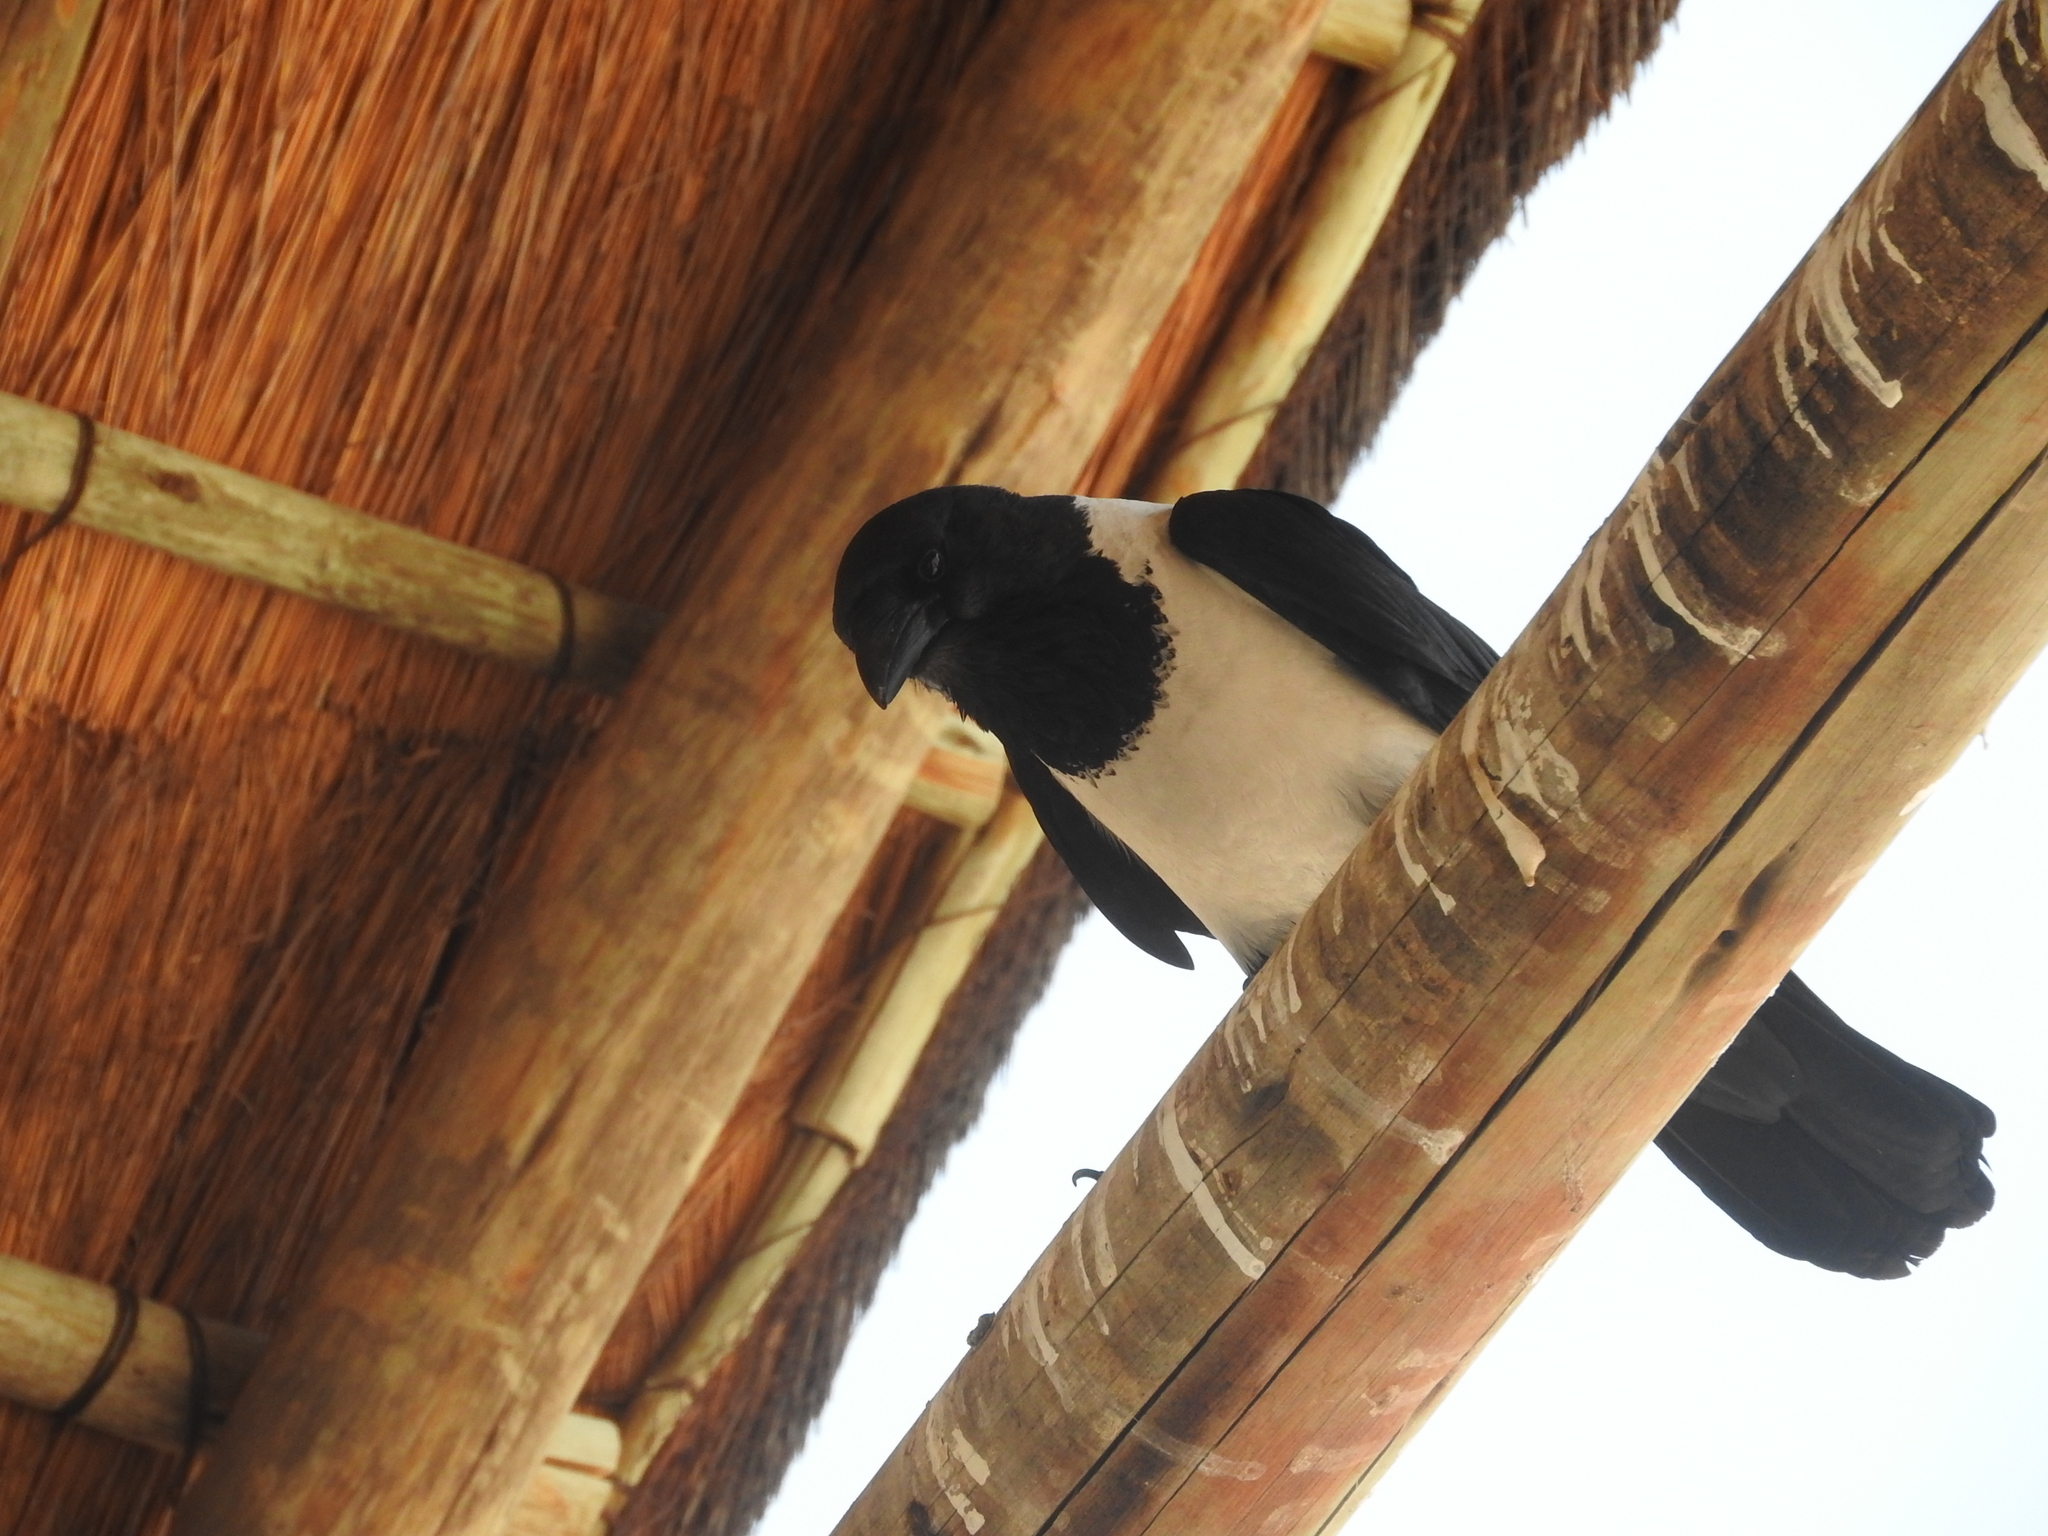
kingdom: Animalia
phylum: Chordata
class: Aves
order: Passeriformes
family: Corvidae
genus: Corvus
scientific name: Corvus albus
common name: Pied crow
